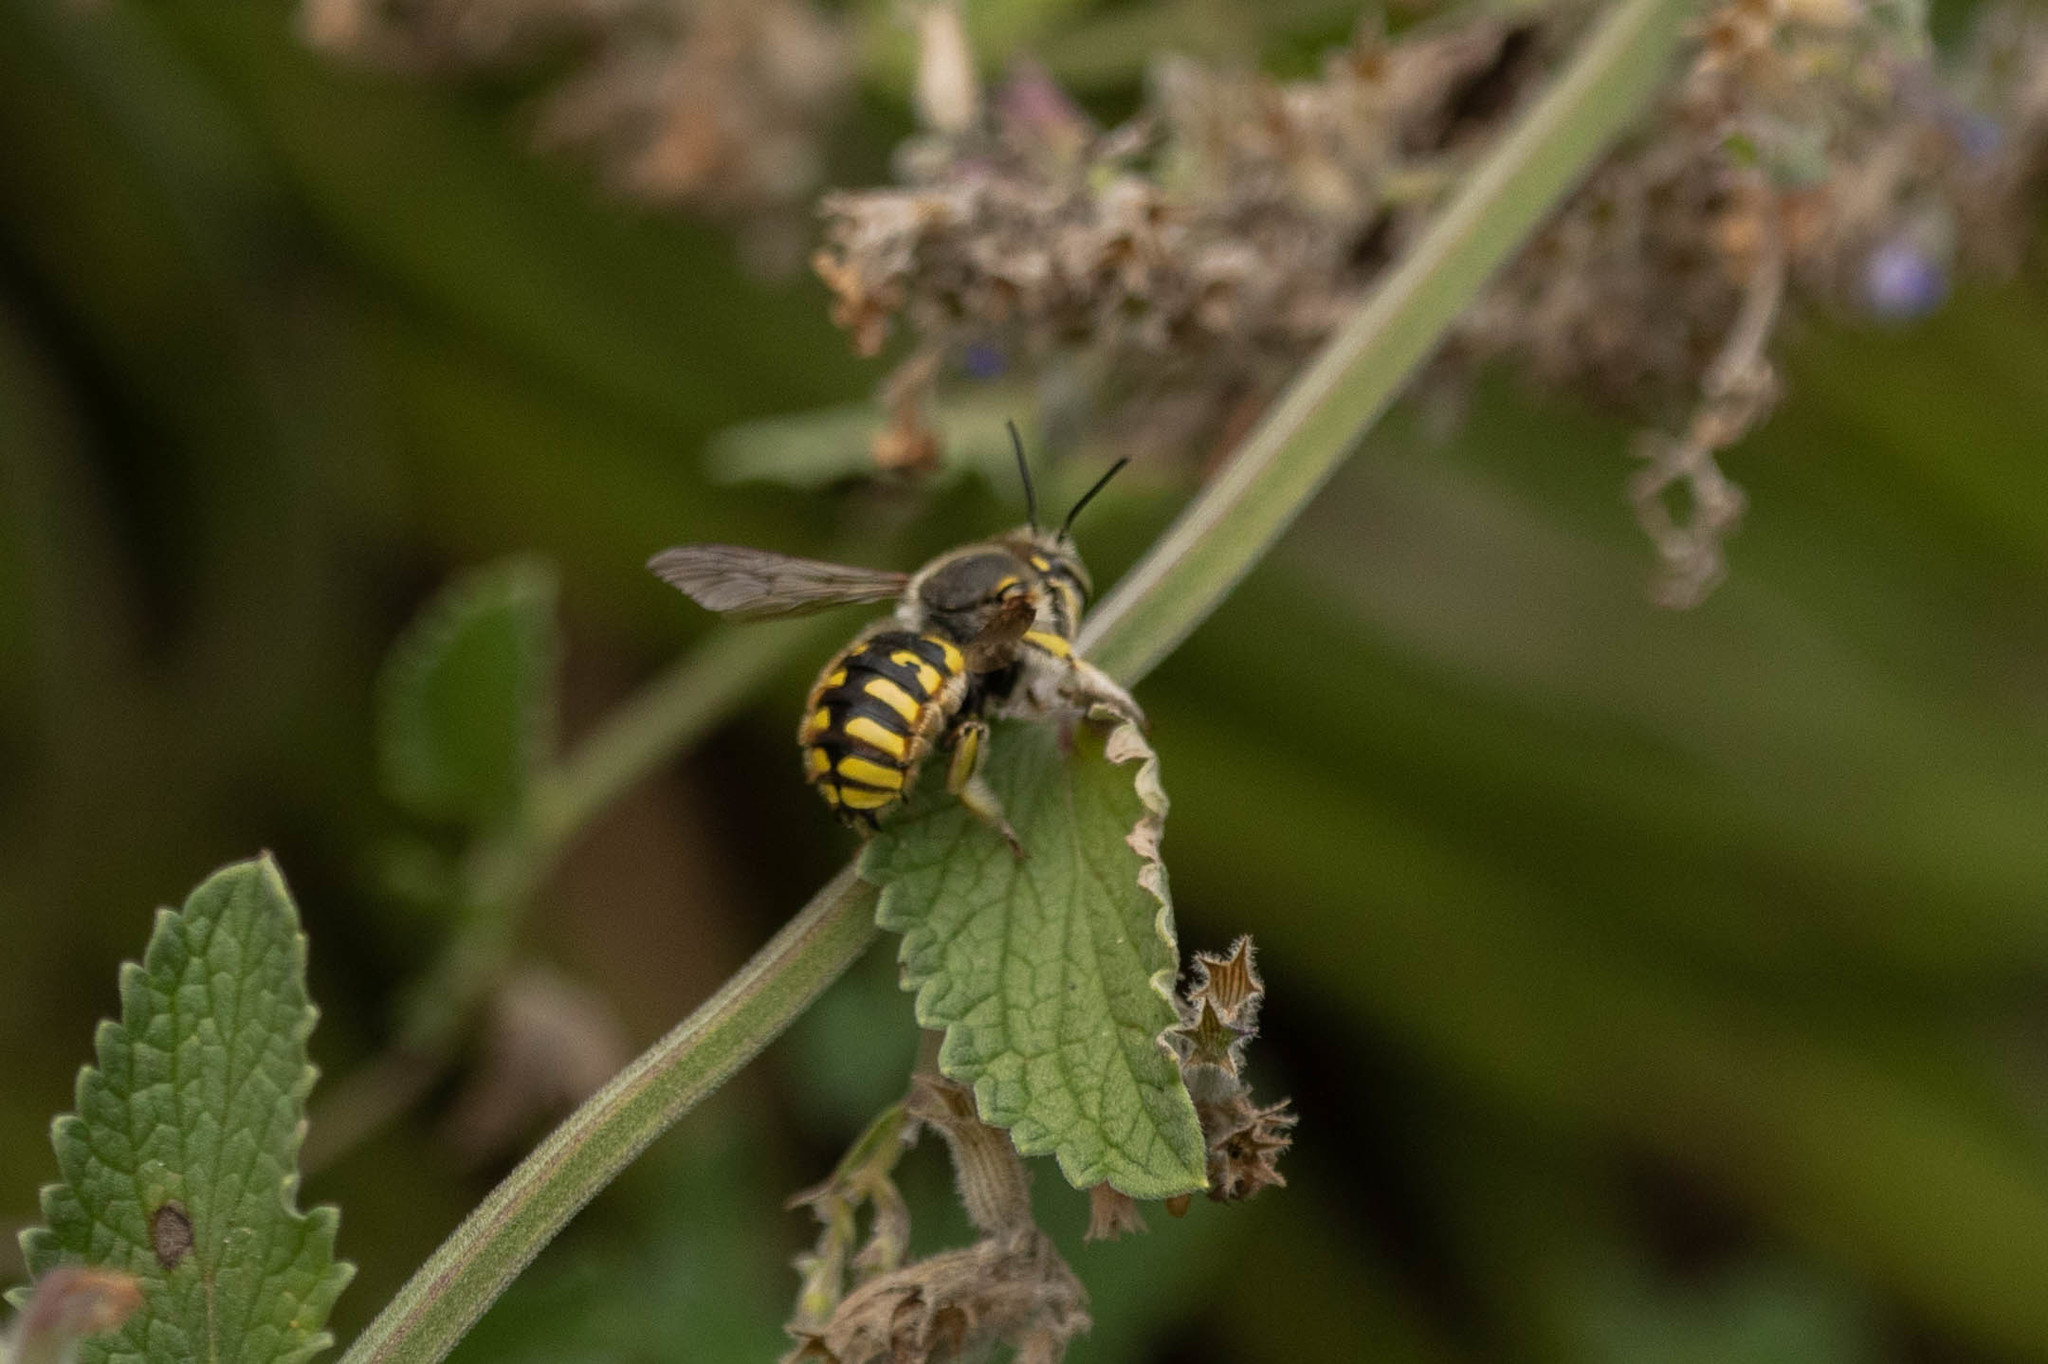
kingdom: Animalia
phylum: Arthropoda
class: Insecta
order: Hymenoptera
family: Megachilidae
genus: Anthidium
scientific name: Anthidium manicatum
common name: Wool carder bee
